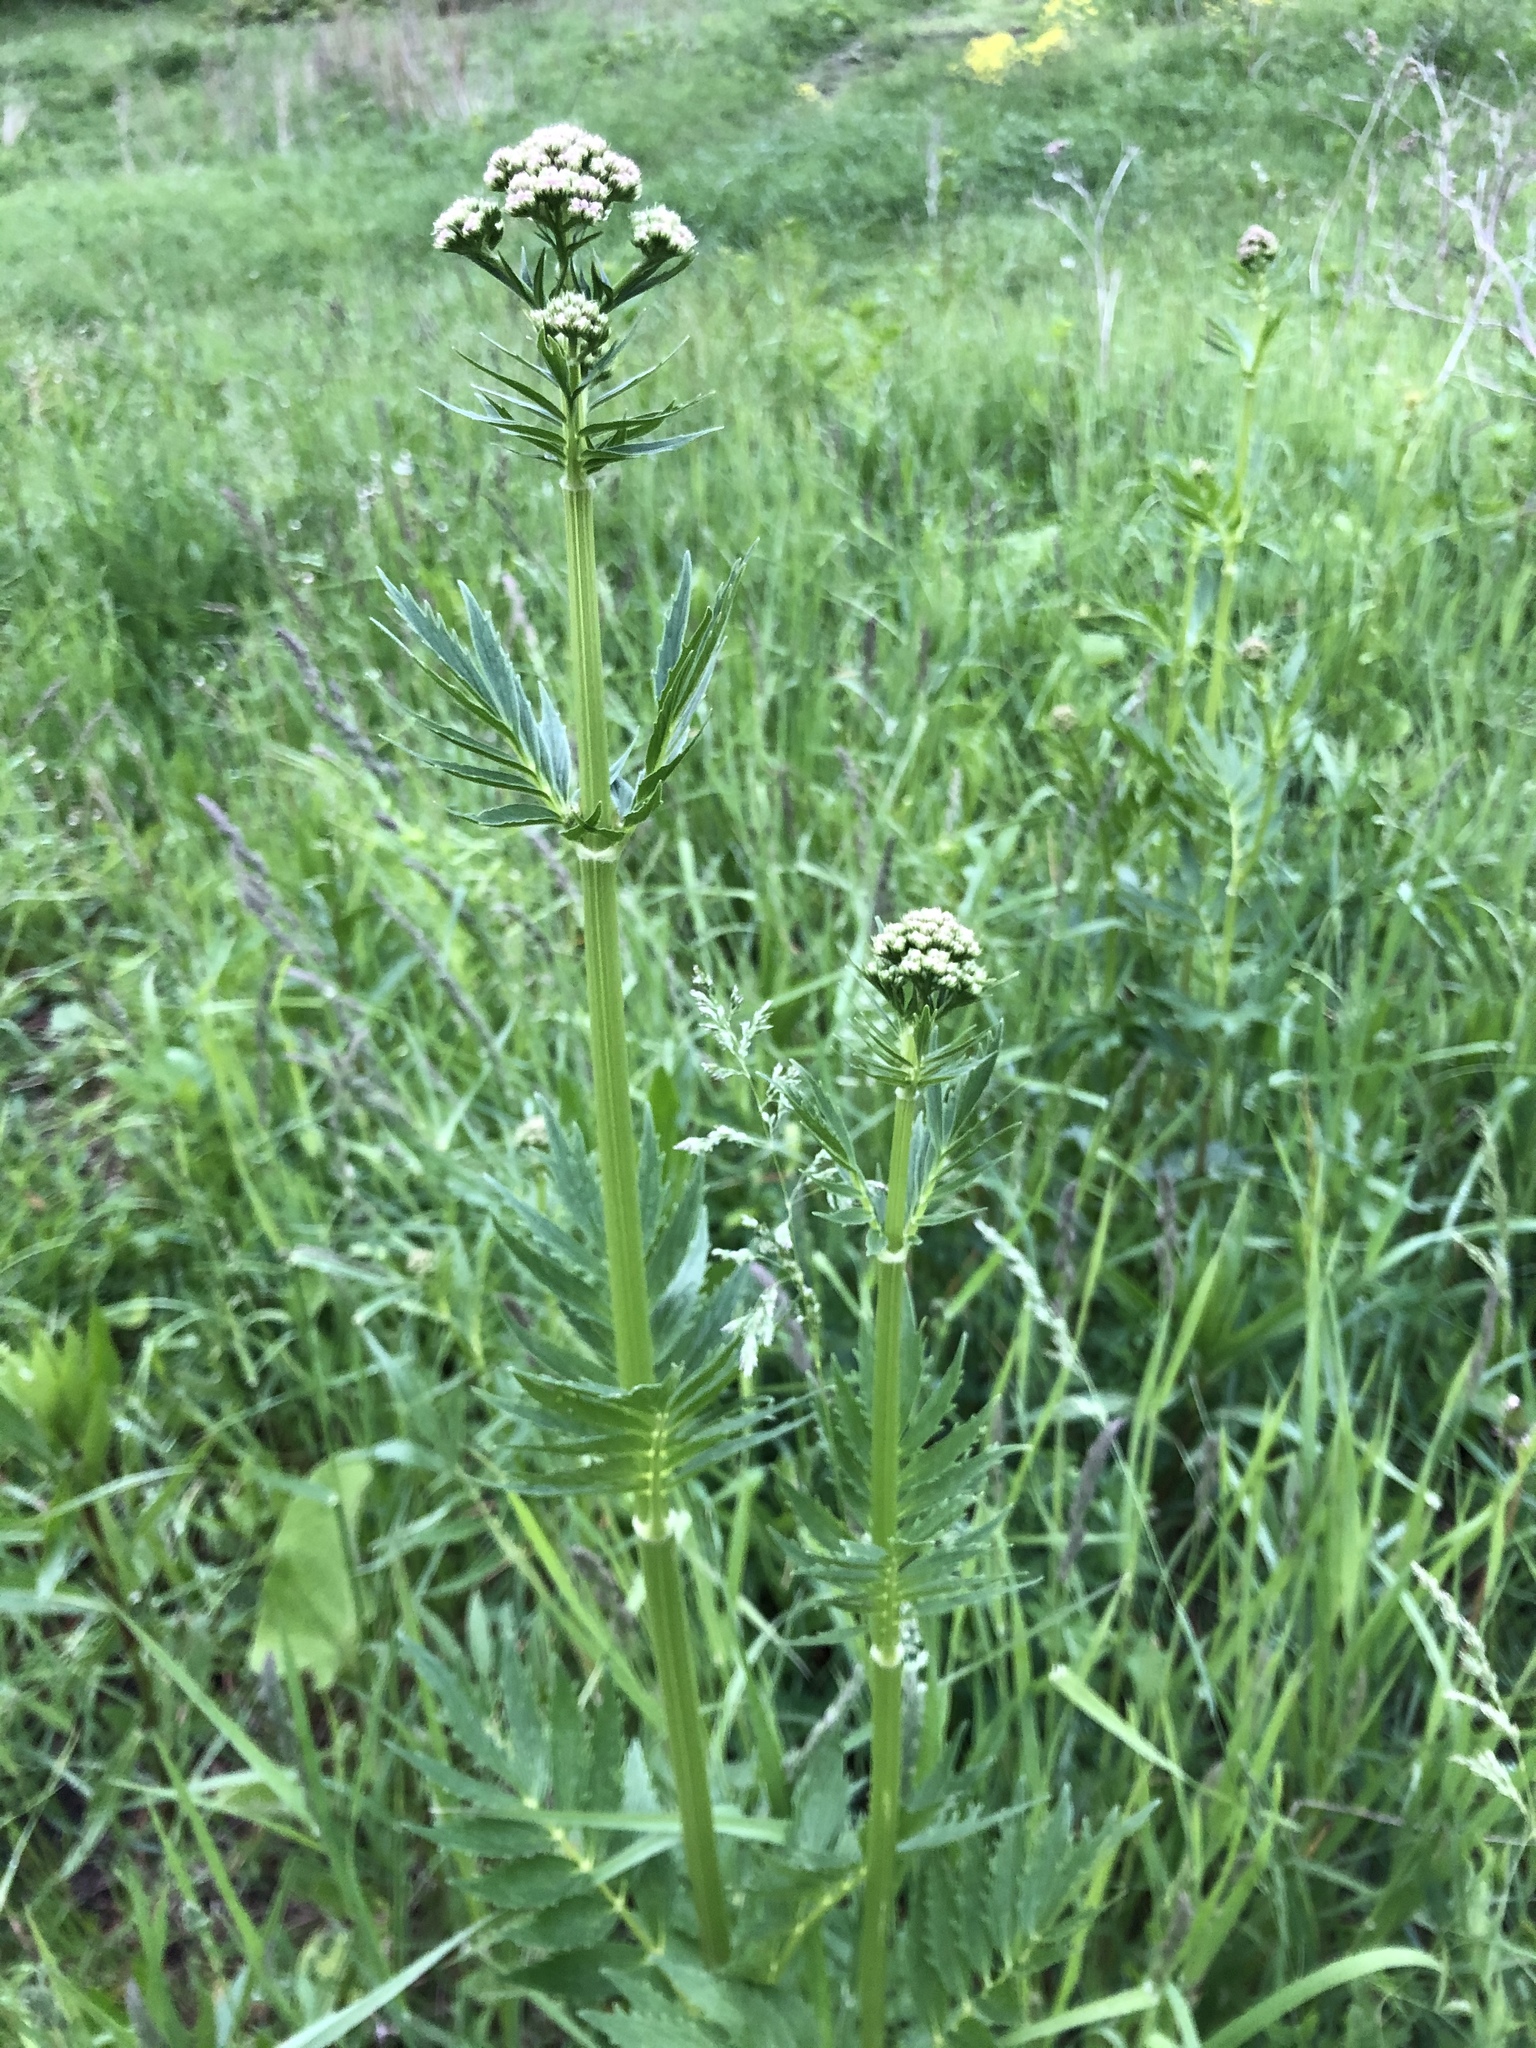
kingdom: Plantae
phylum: Tracheophyta
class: Magnoliopsida
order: Dipsacales
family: Caprifoliaceae
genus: Valeriana
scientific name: Valeriana officinalis
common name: Common valerian
